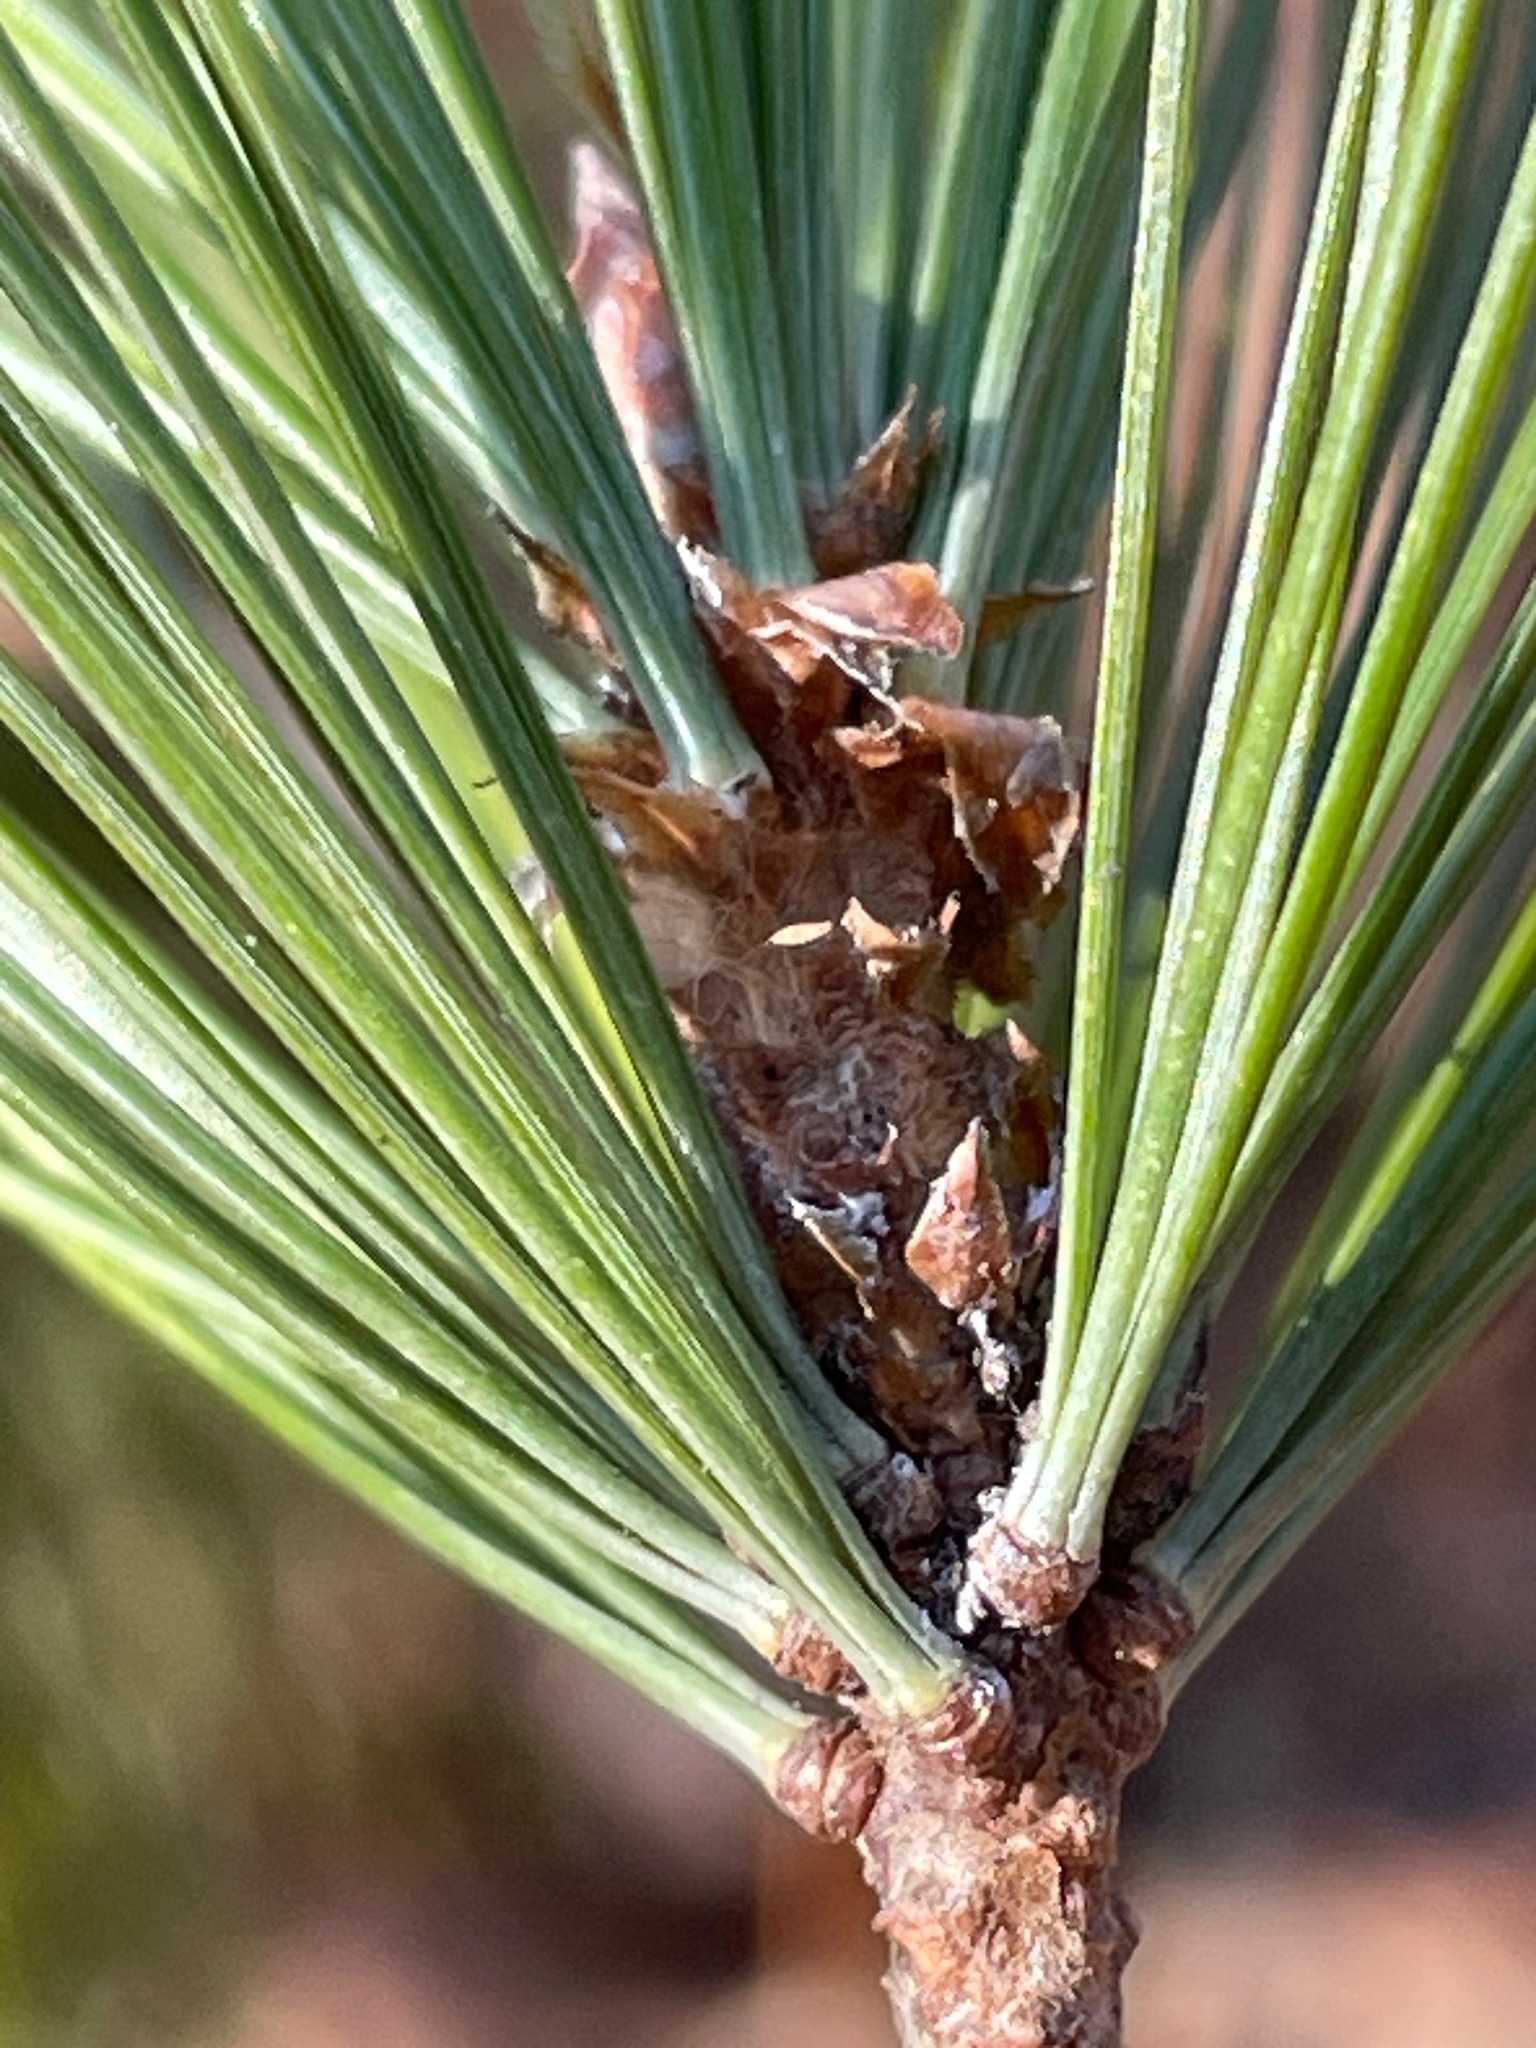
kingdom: Plantae
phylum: Tracheophyta
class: Pinopsida
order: Pinales
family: Pinaceae
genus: Pinus
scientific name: Pinus strobus
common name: Weymouth pine
